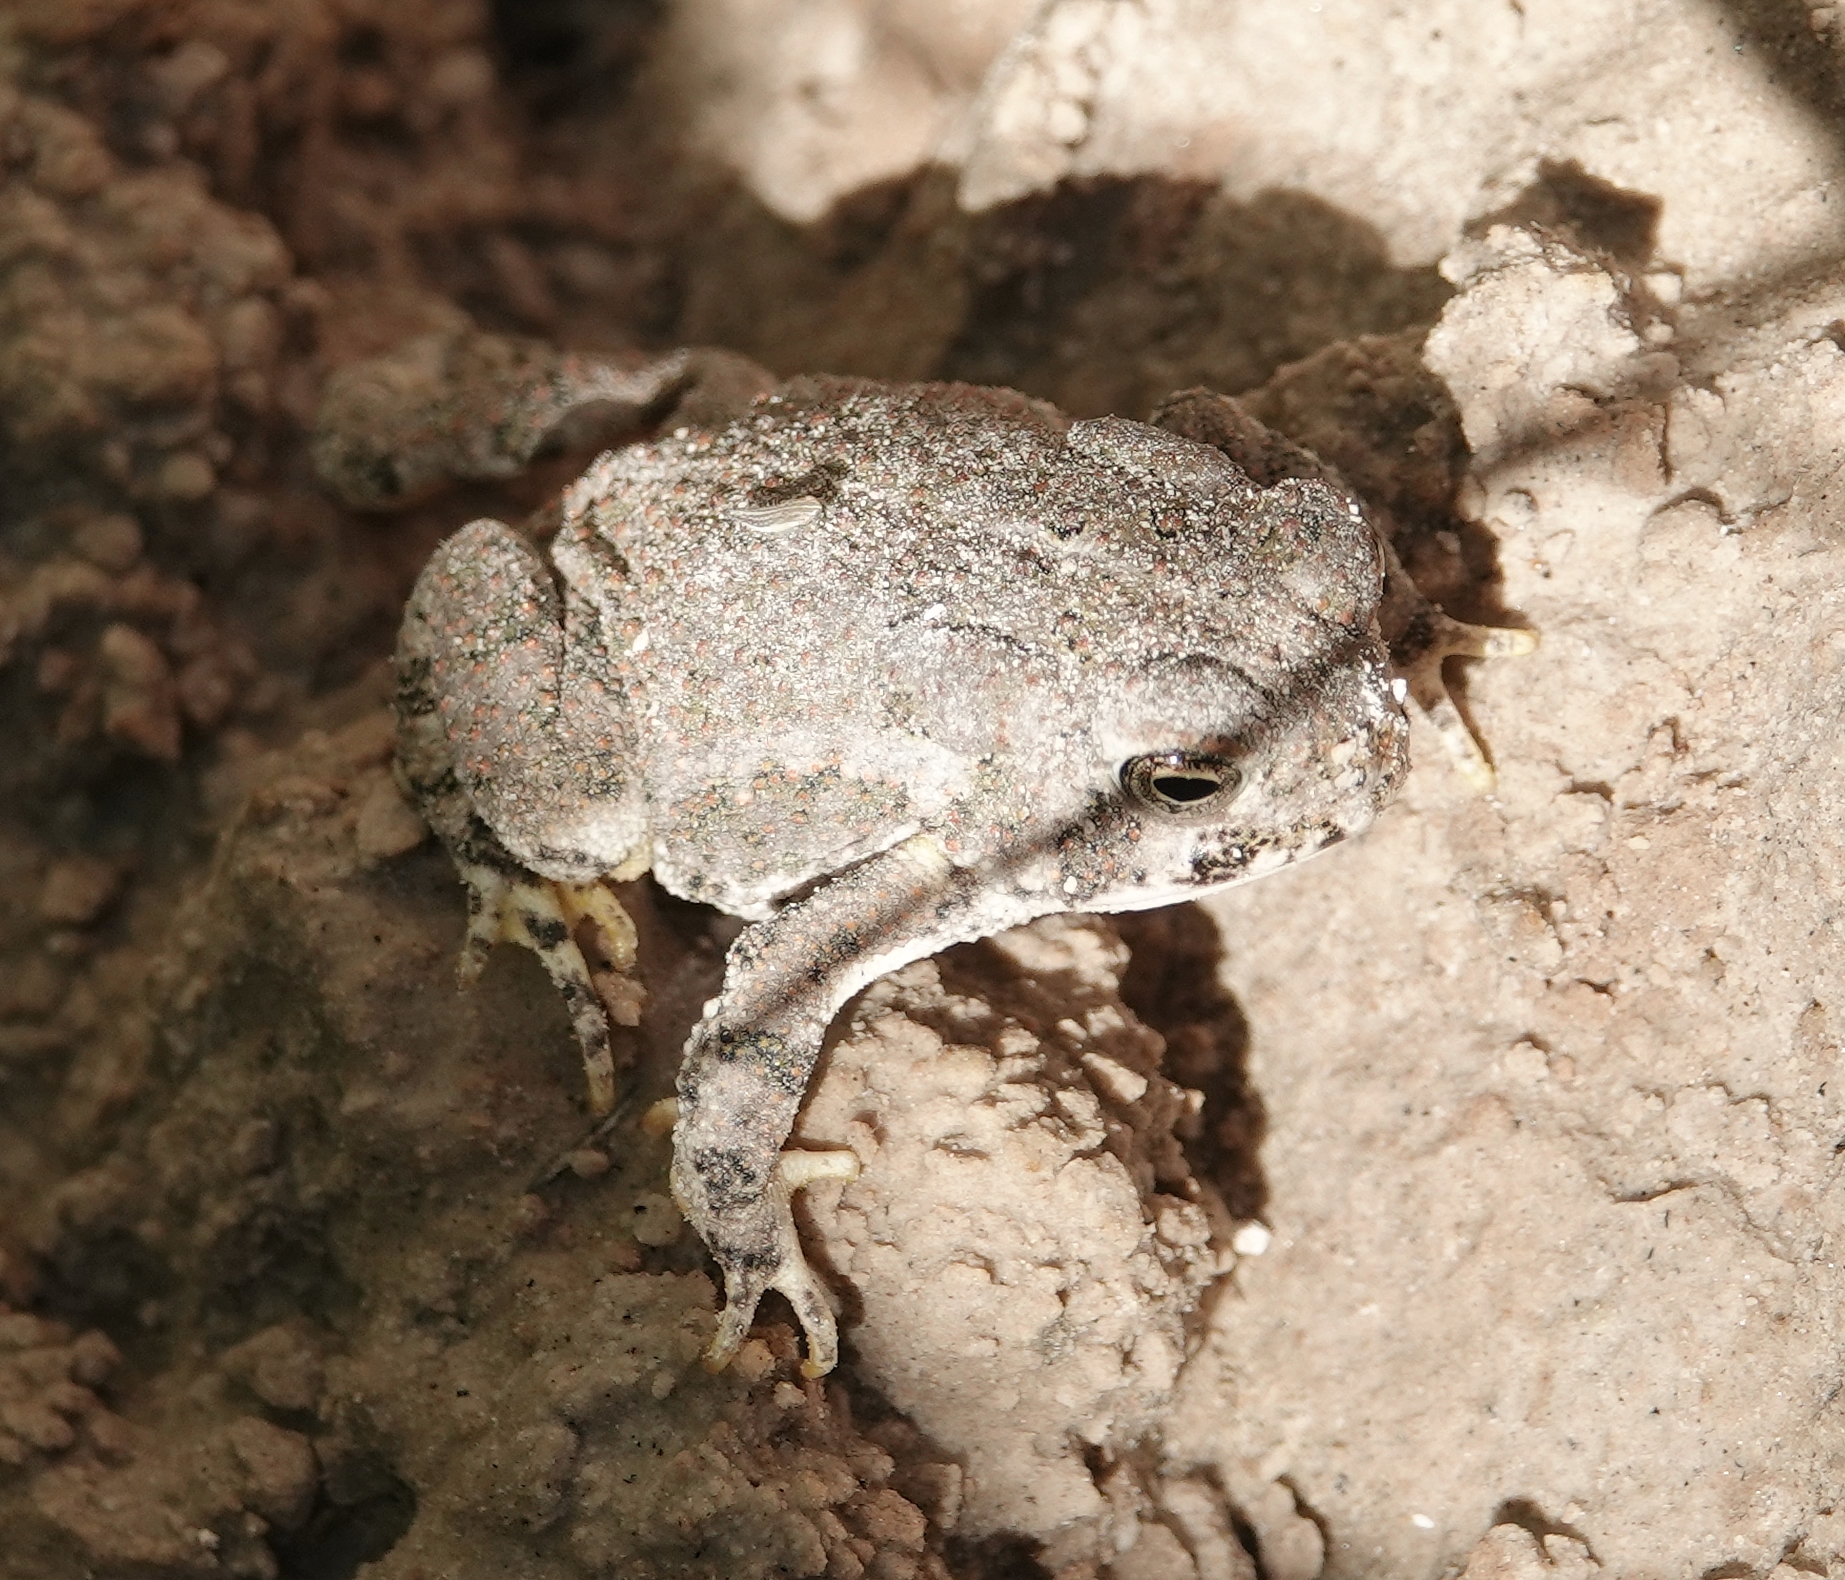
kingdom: Animalia
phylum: Chordata
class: Amphibia
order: Anura
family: Bufonidae
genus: Anaxyrus
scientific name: Anaxyrus woodhousii
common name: Woodhouse's toad
